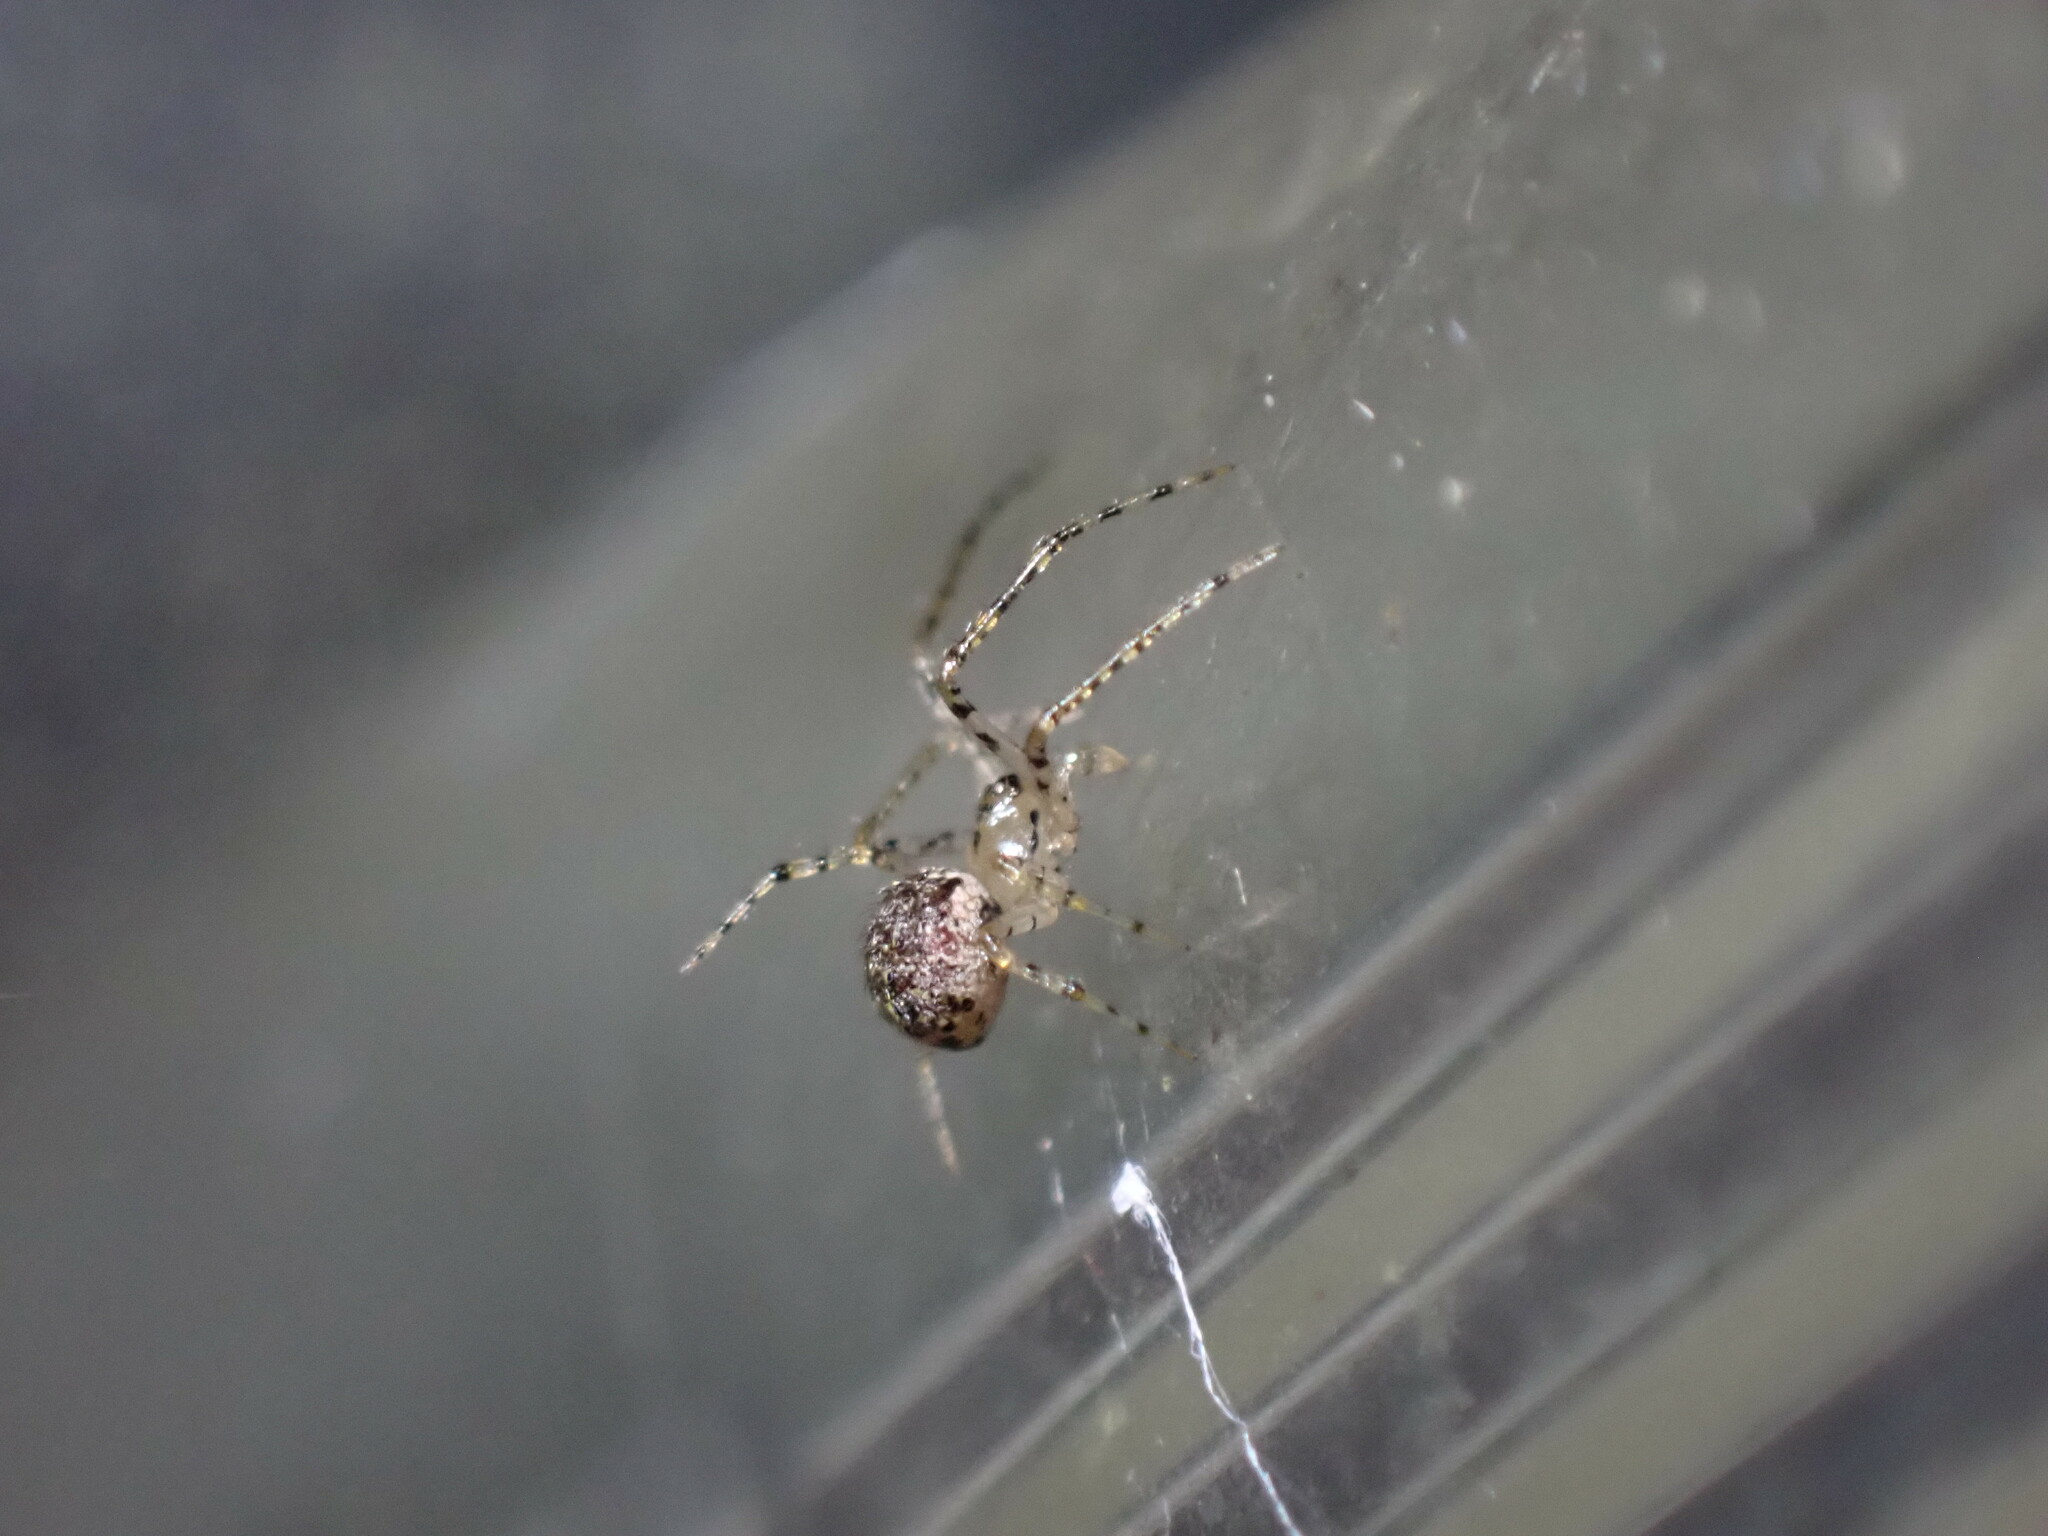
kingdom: Animalia
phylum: Arthropoda
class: Arachnida
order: Araneae
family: Theridiidae
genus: Platnickina
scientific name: Platnickina tincta
